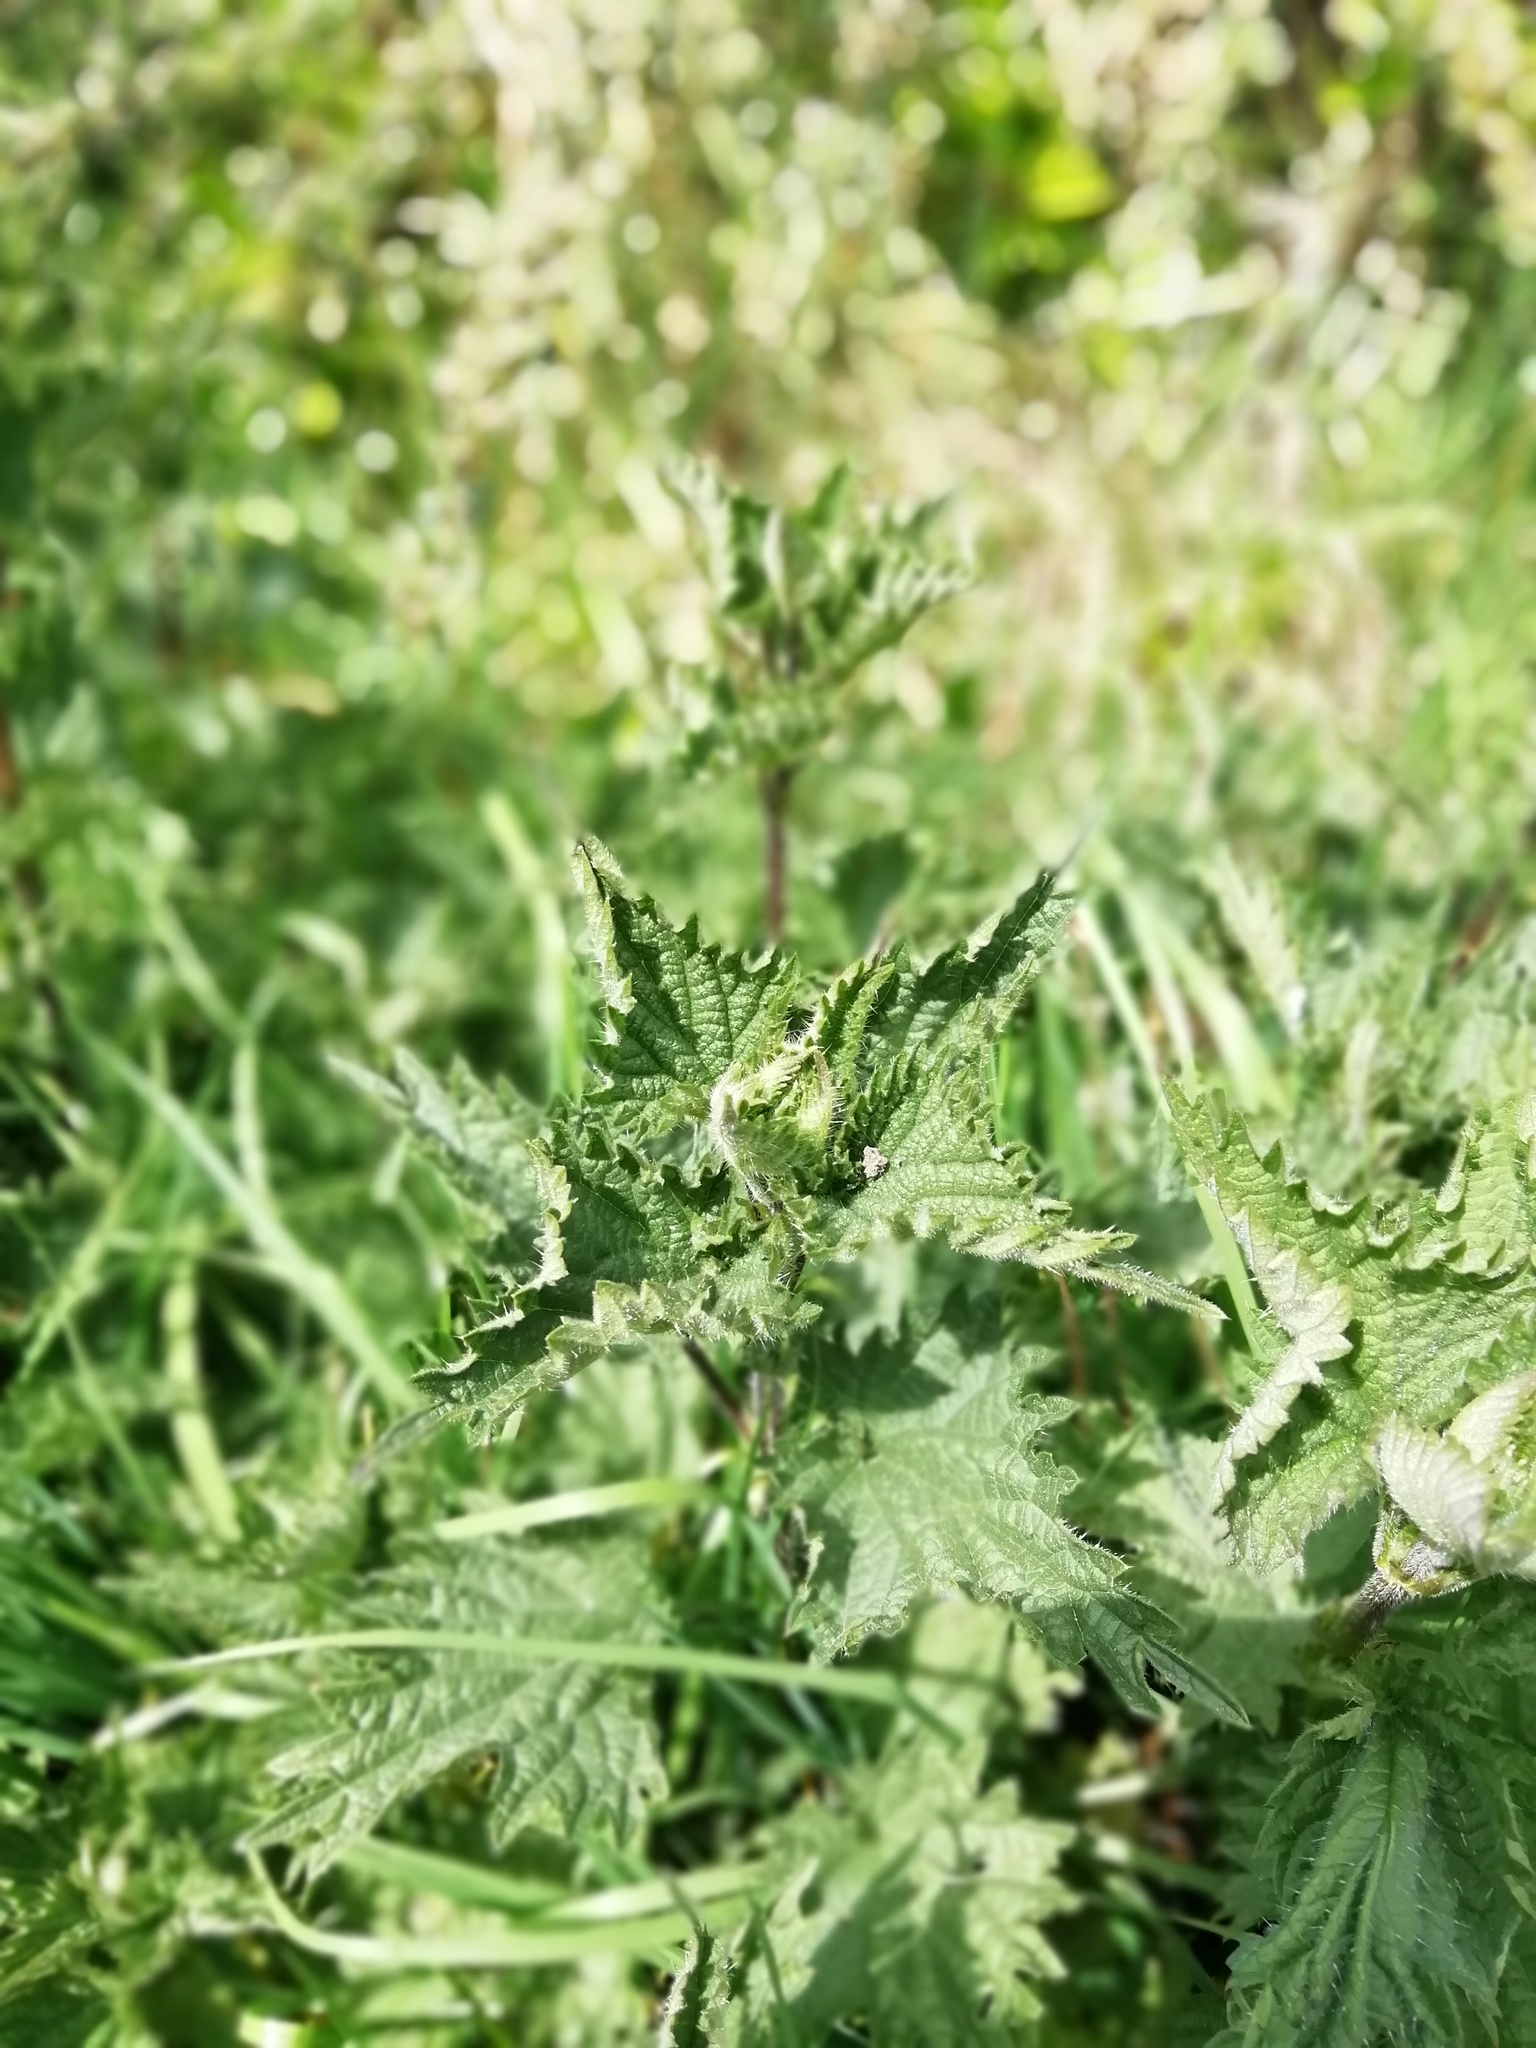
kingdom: Plantae
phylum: Tracheophyta
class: Magnoliopsida
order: Rosales
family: Urticaceae
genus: Urtica
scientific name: Urtica dioica
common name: Common nettle
